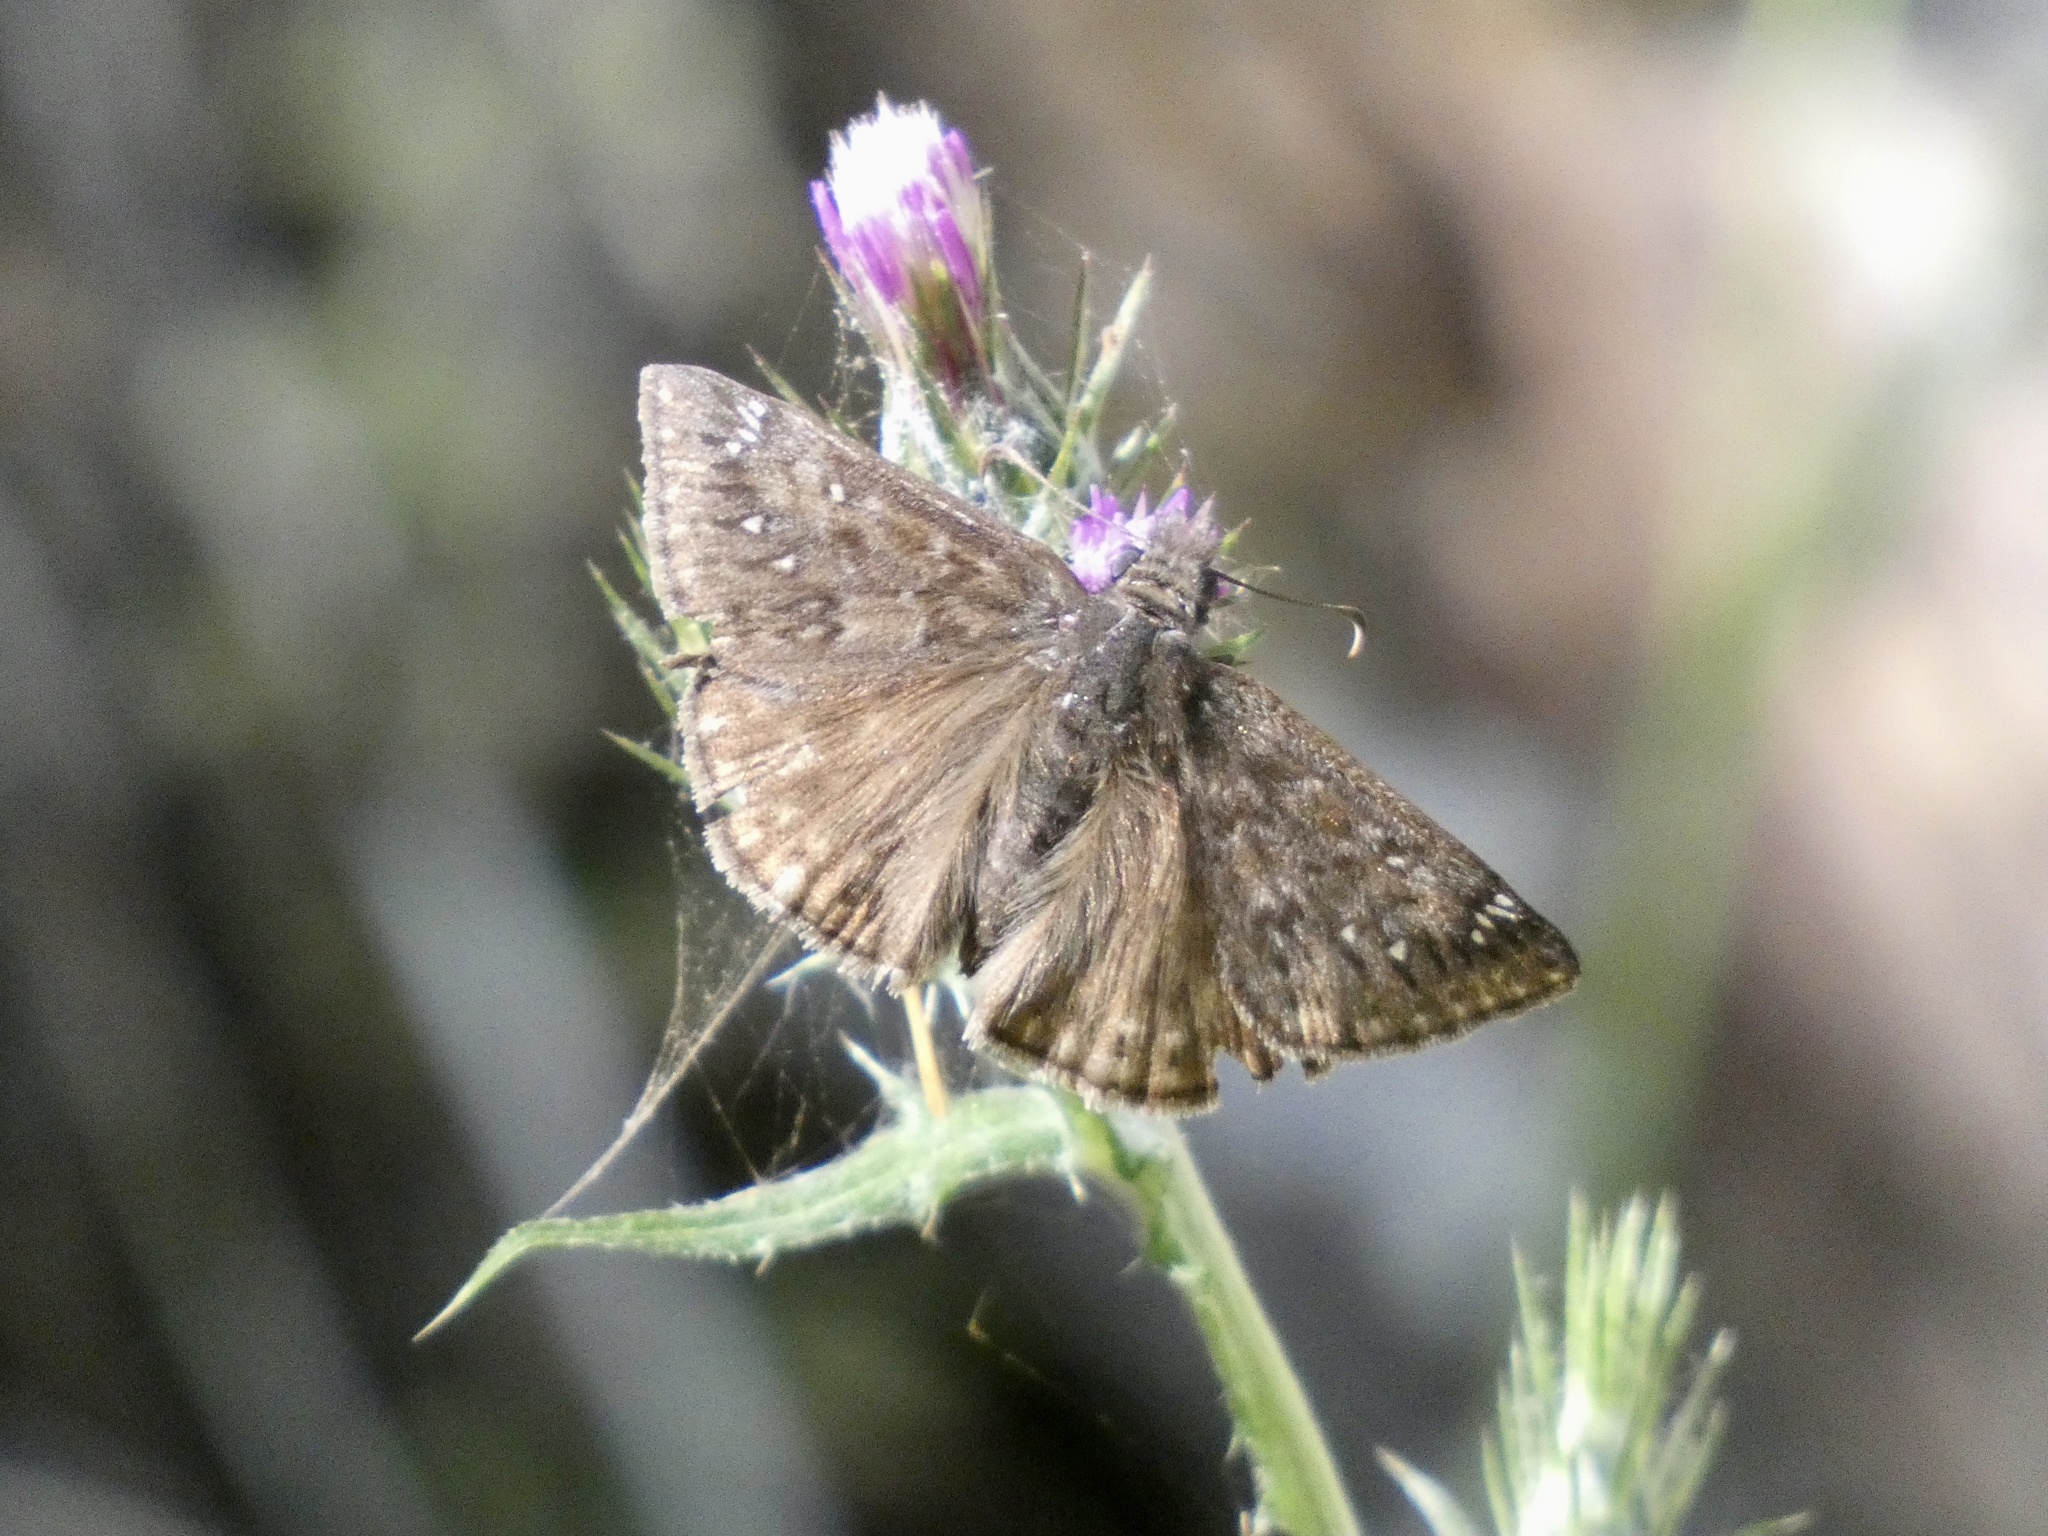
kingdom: Animalia
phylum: Arthropoda
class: Insecta
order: Lepidoptera
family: Hesperiidae
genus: Erynnis
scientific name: Erynnis propertius
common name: Propertius duskywing
